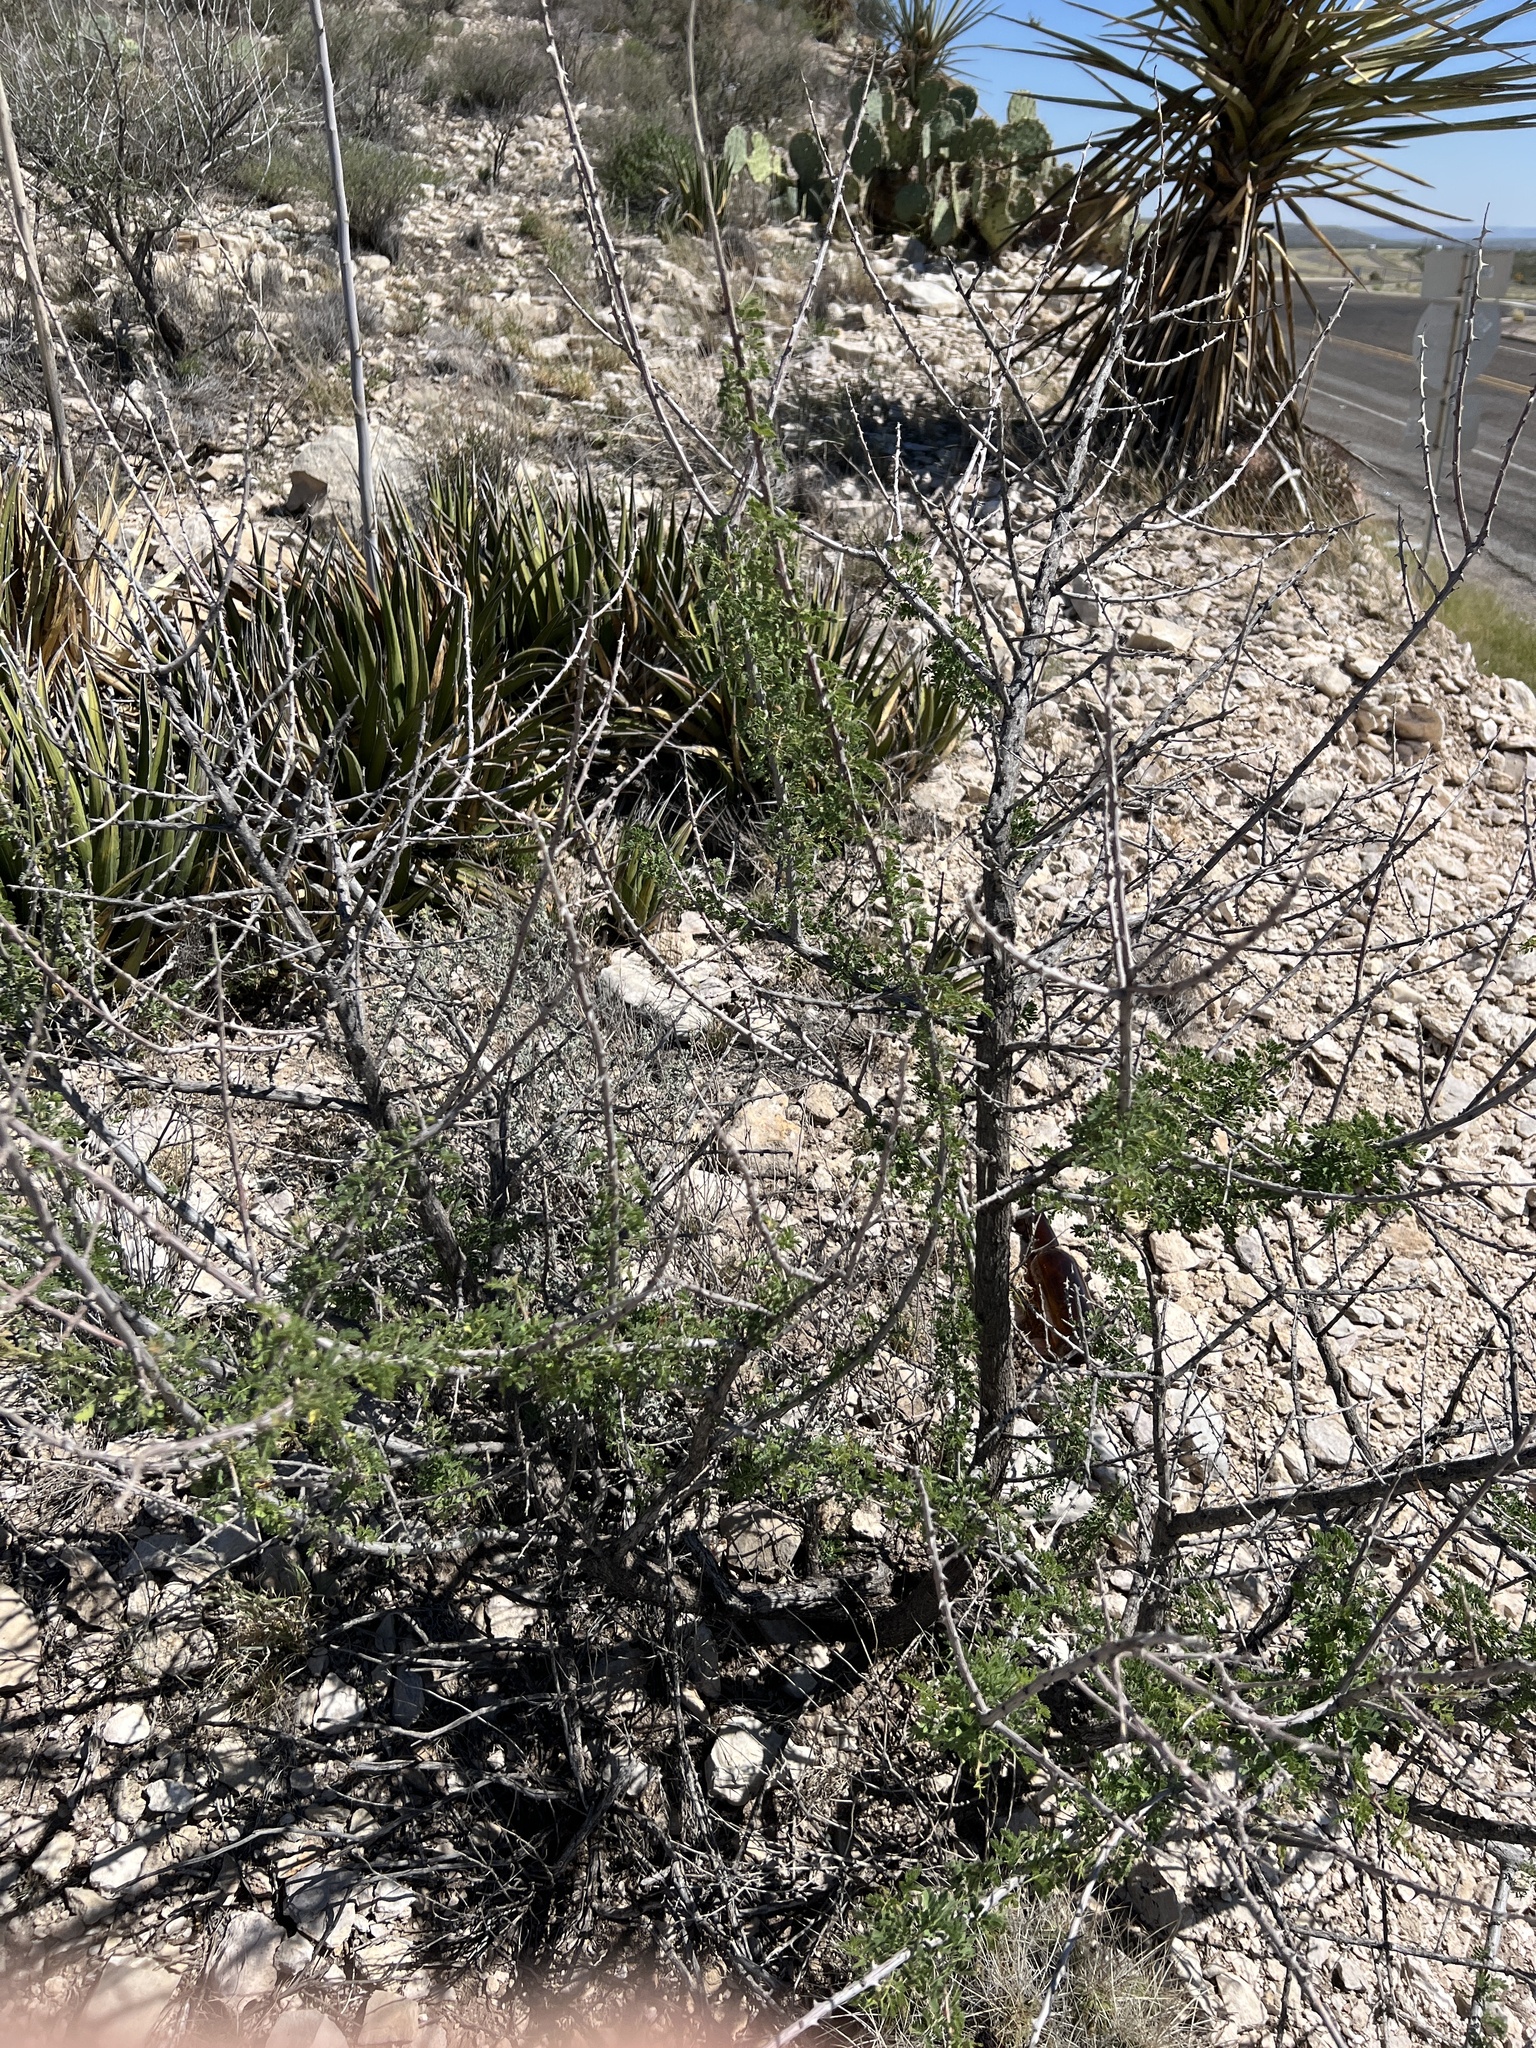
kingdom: Plantae
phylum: Tracheophyta
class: Magnoliopsida
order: Fabales
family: Fabaceae
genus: Senegalia
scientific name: Senegalia greggii
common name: Texas-mimosa
